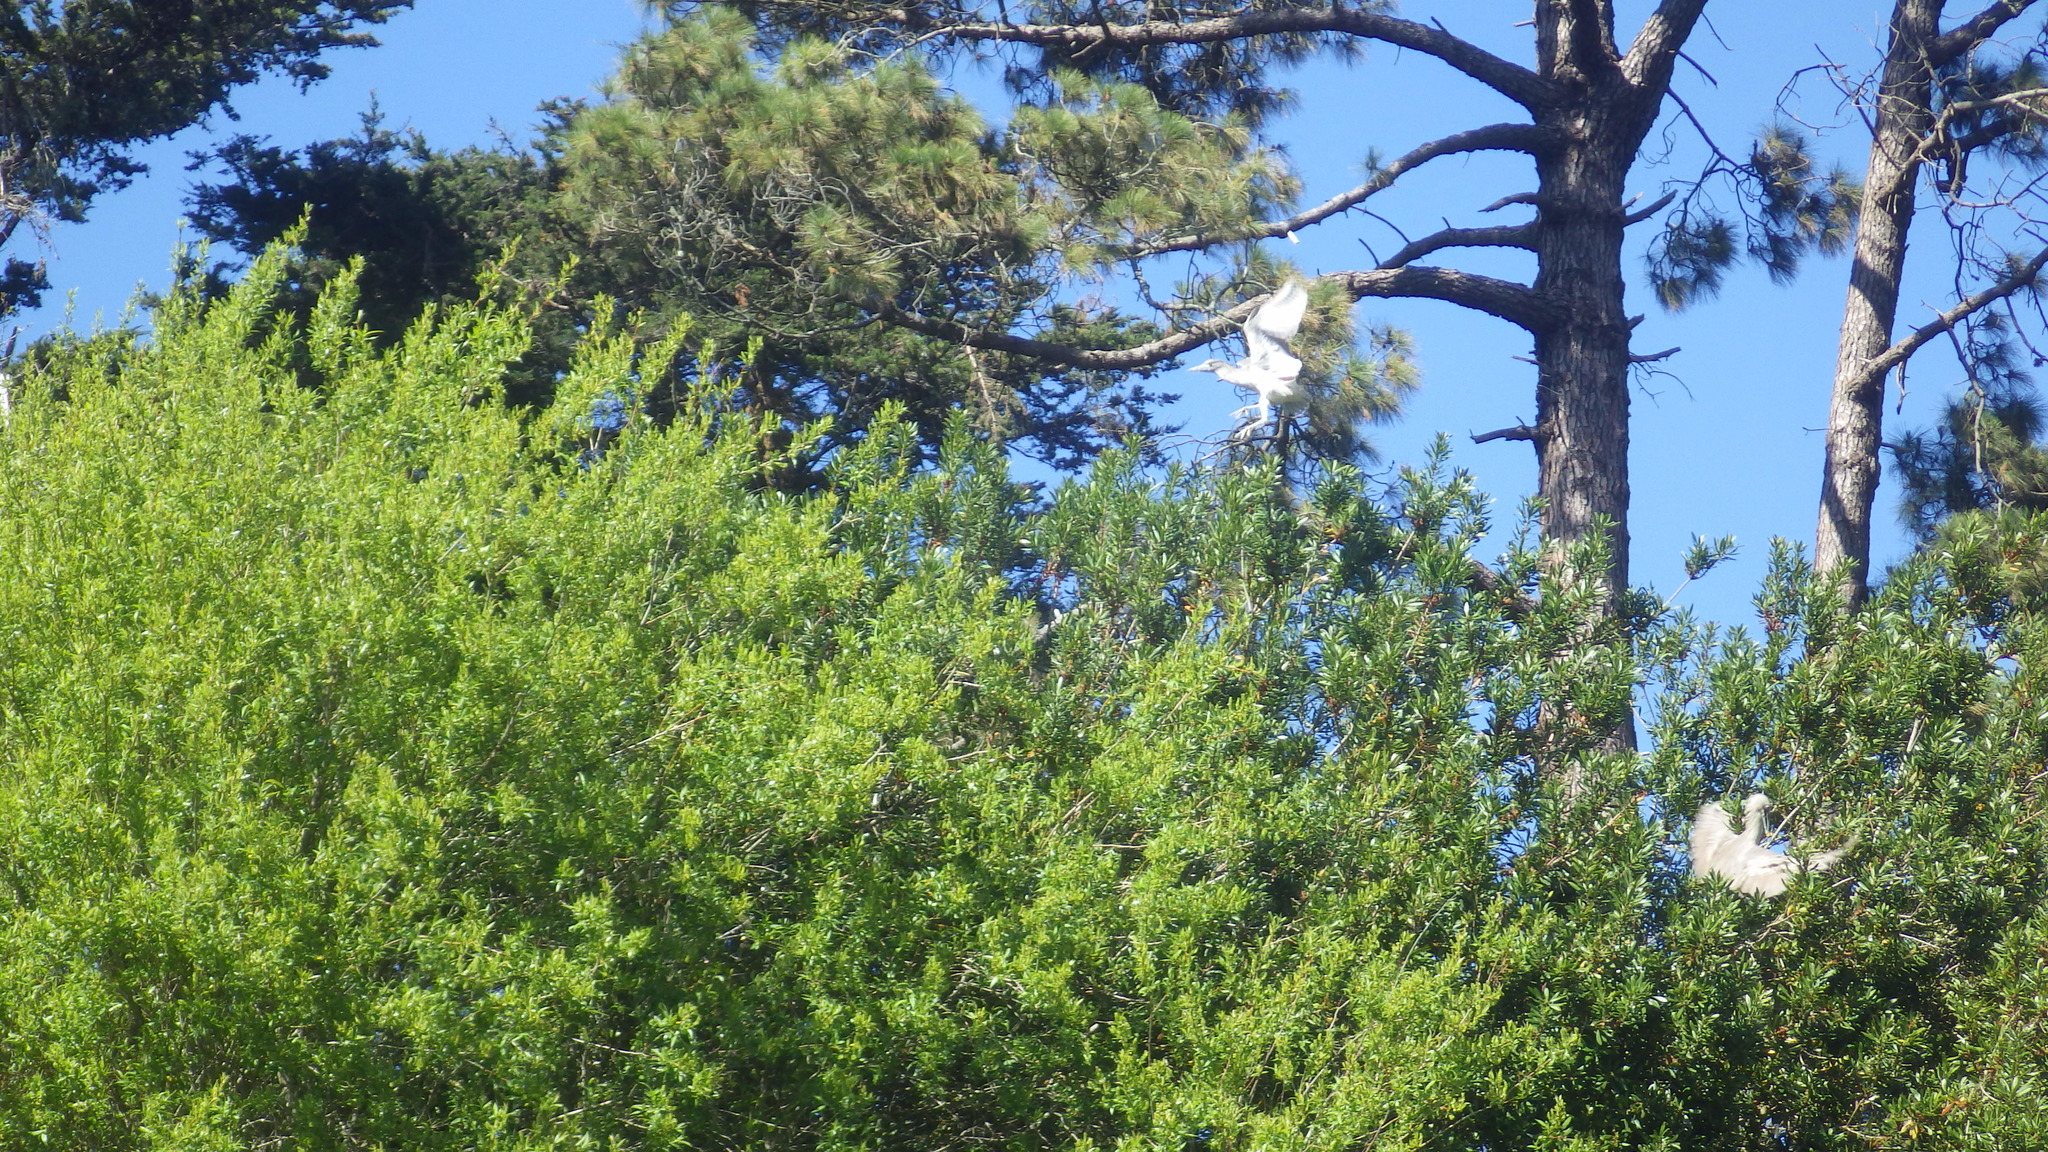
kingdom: Animalia
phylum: Chordata
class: Aves
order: Pelecaniformes
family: Ardeidae
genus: Nycticorax
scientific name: Nycticorax nycticorax
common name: Black-crowned night heron
